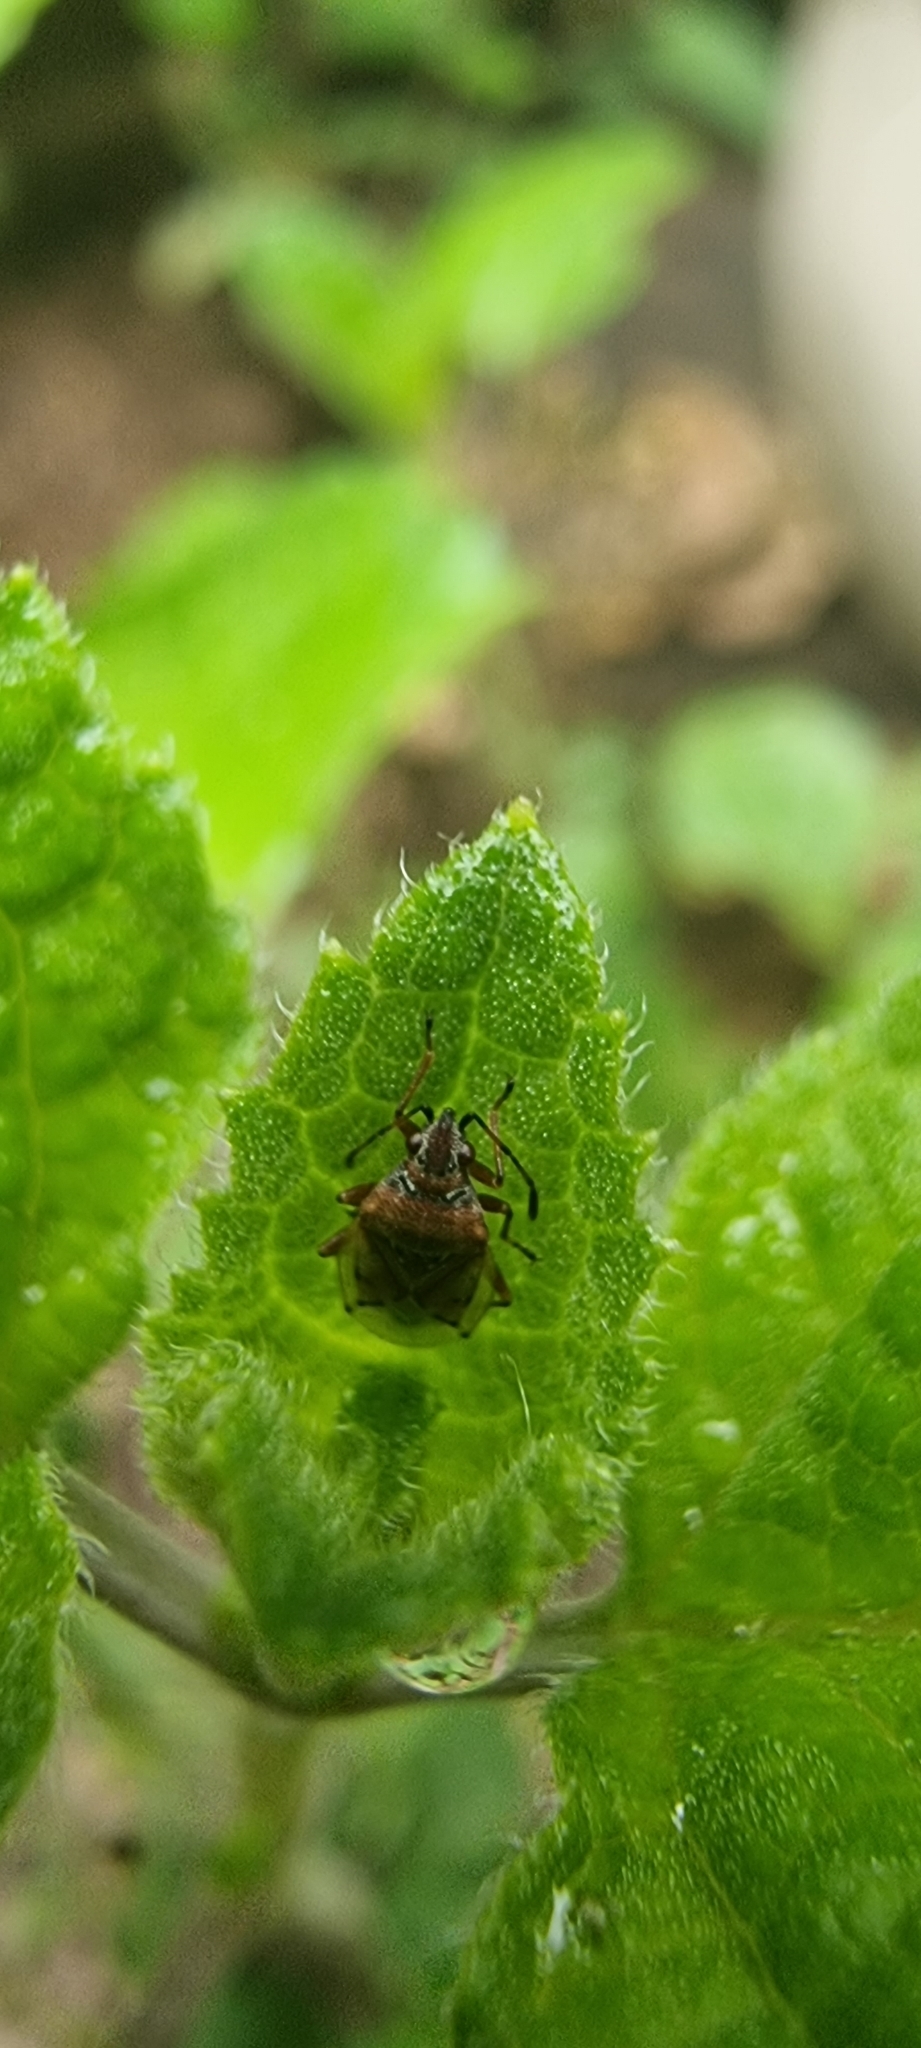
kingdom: Animalia
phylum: Arthropoda
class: Insecta
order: Hemiptera
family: Lygaeidae
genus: Kleidocerys
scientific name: Kleidocerys resedae
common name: Birch catkin bug
